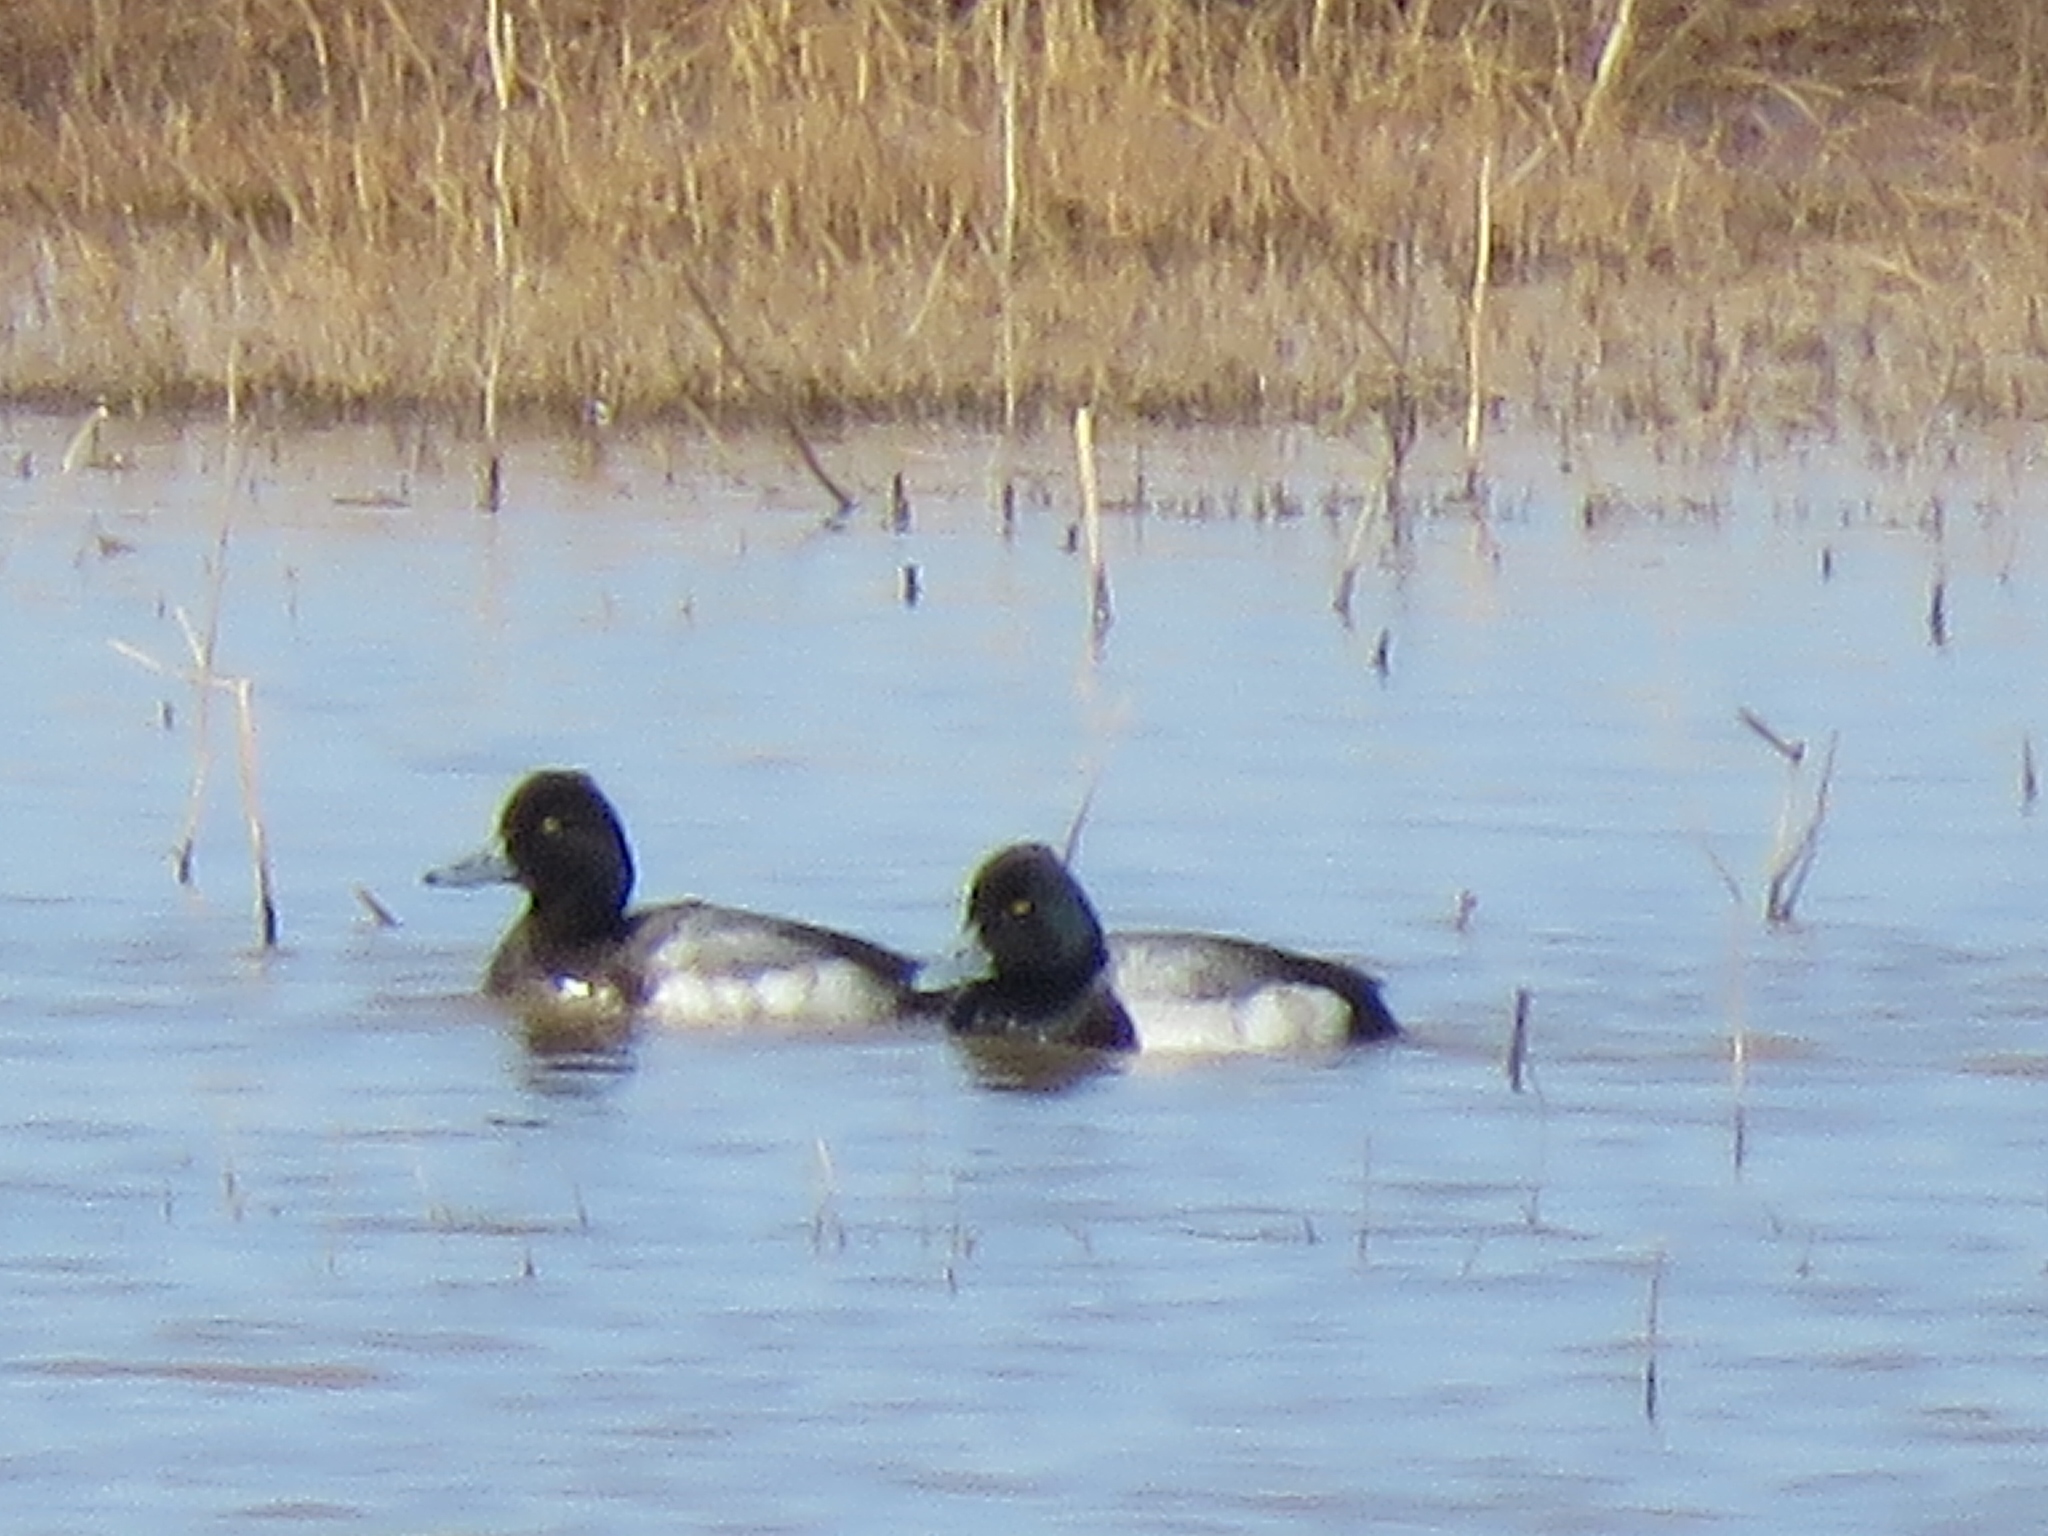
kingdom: Animalia
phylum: Chordata
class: Aves
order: Anseriformes
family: Anatidae
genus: Aythya
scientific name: Aythya affinis
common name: Lesser scaup
